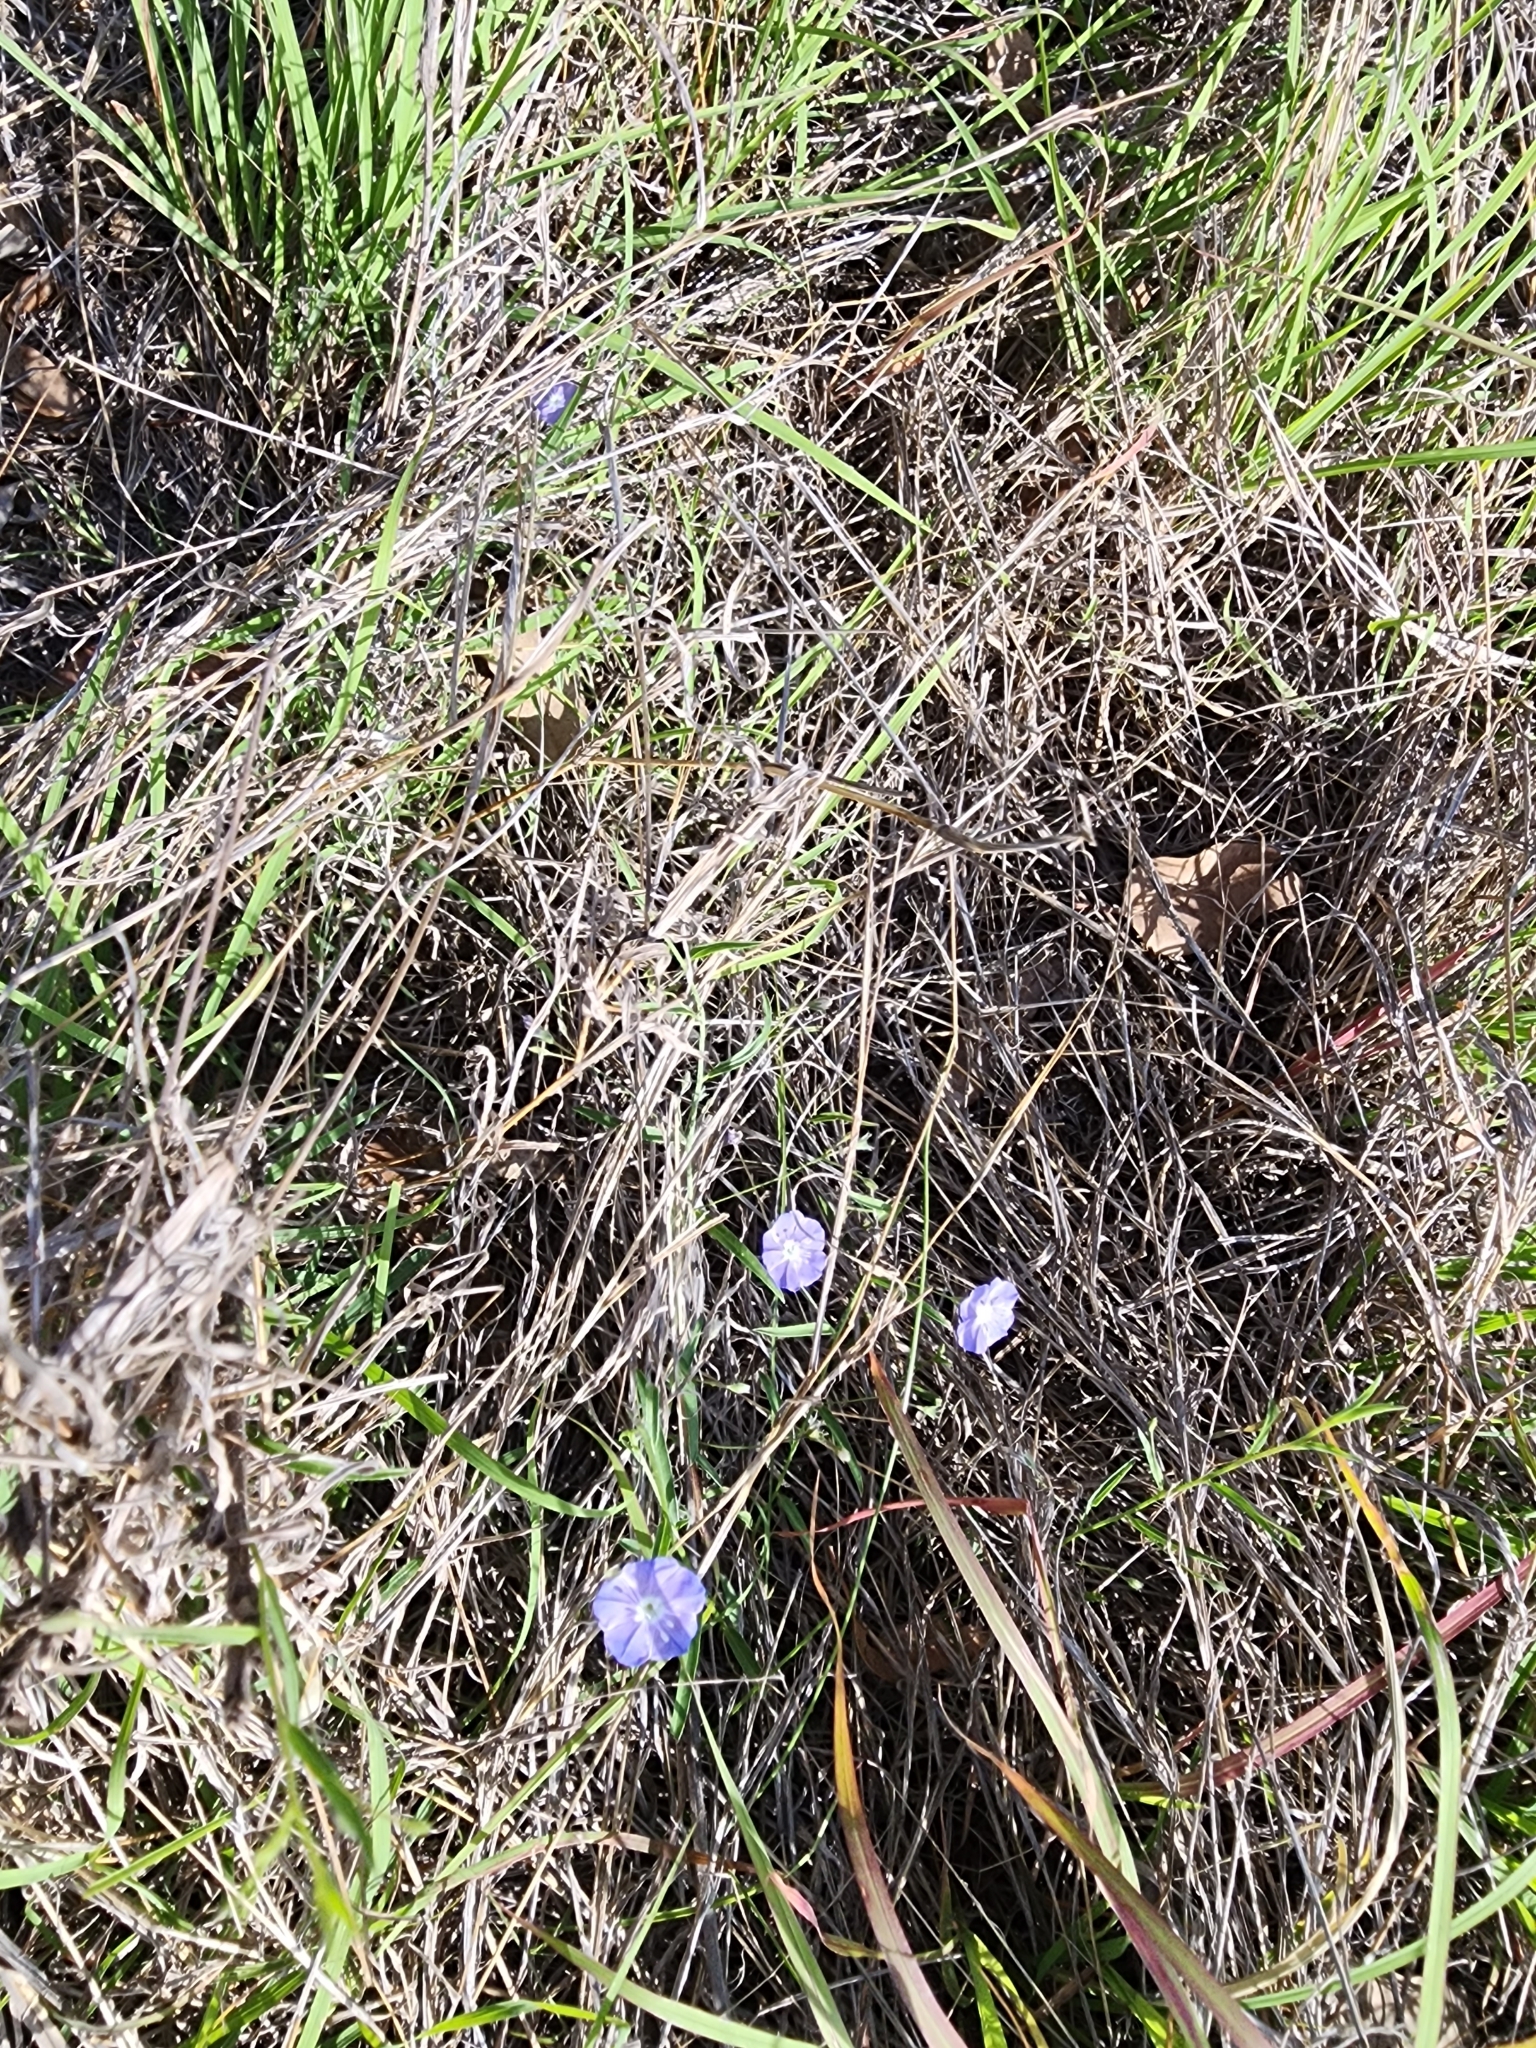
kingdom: Plantae
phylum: Tracheophyta
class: Magnoliopsida
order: Solanales
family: Convolvulaceae
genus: Evolvulus
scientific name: Evolvulus alsinoides
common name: Slender dwarf morning-glory
